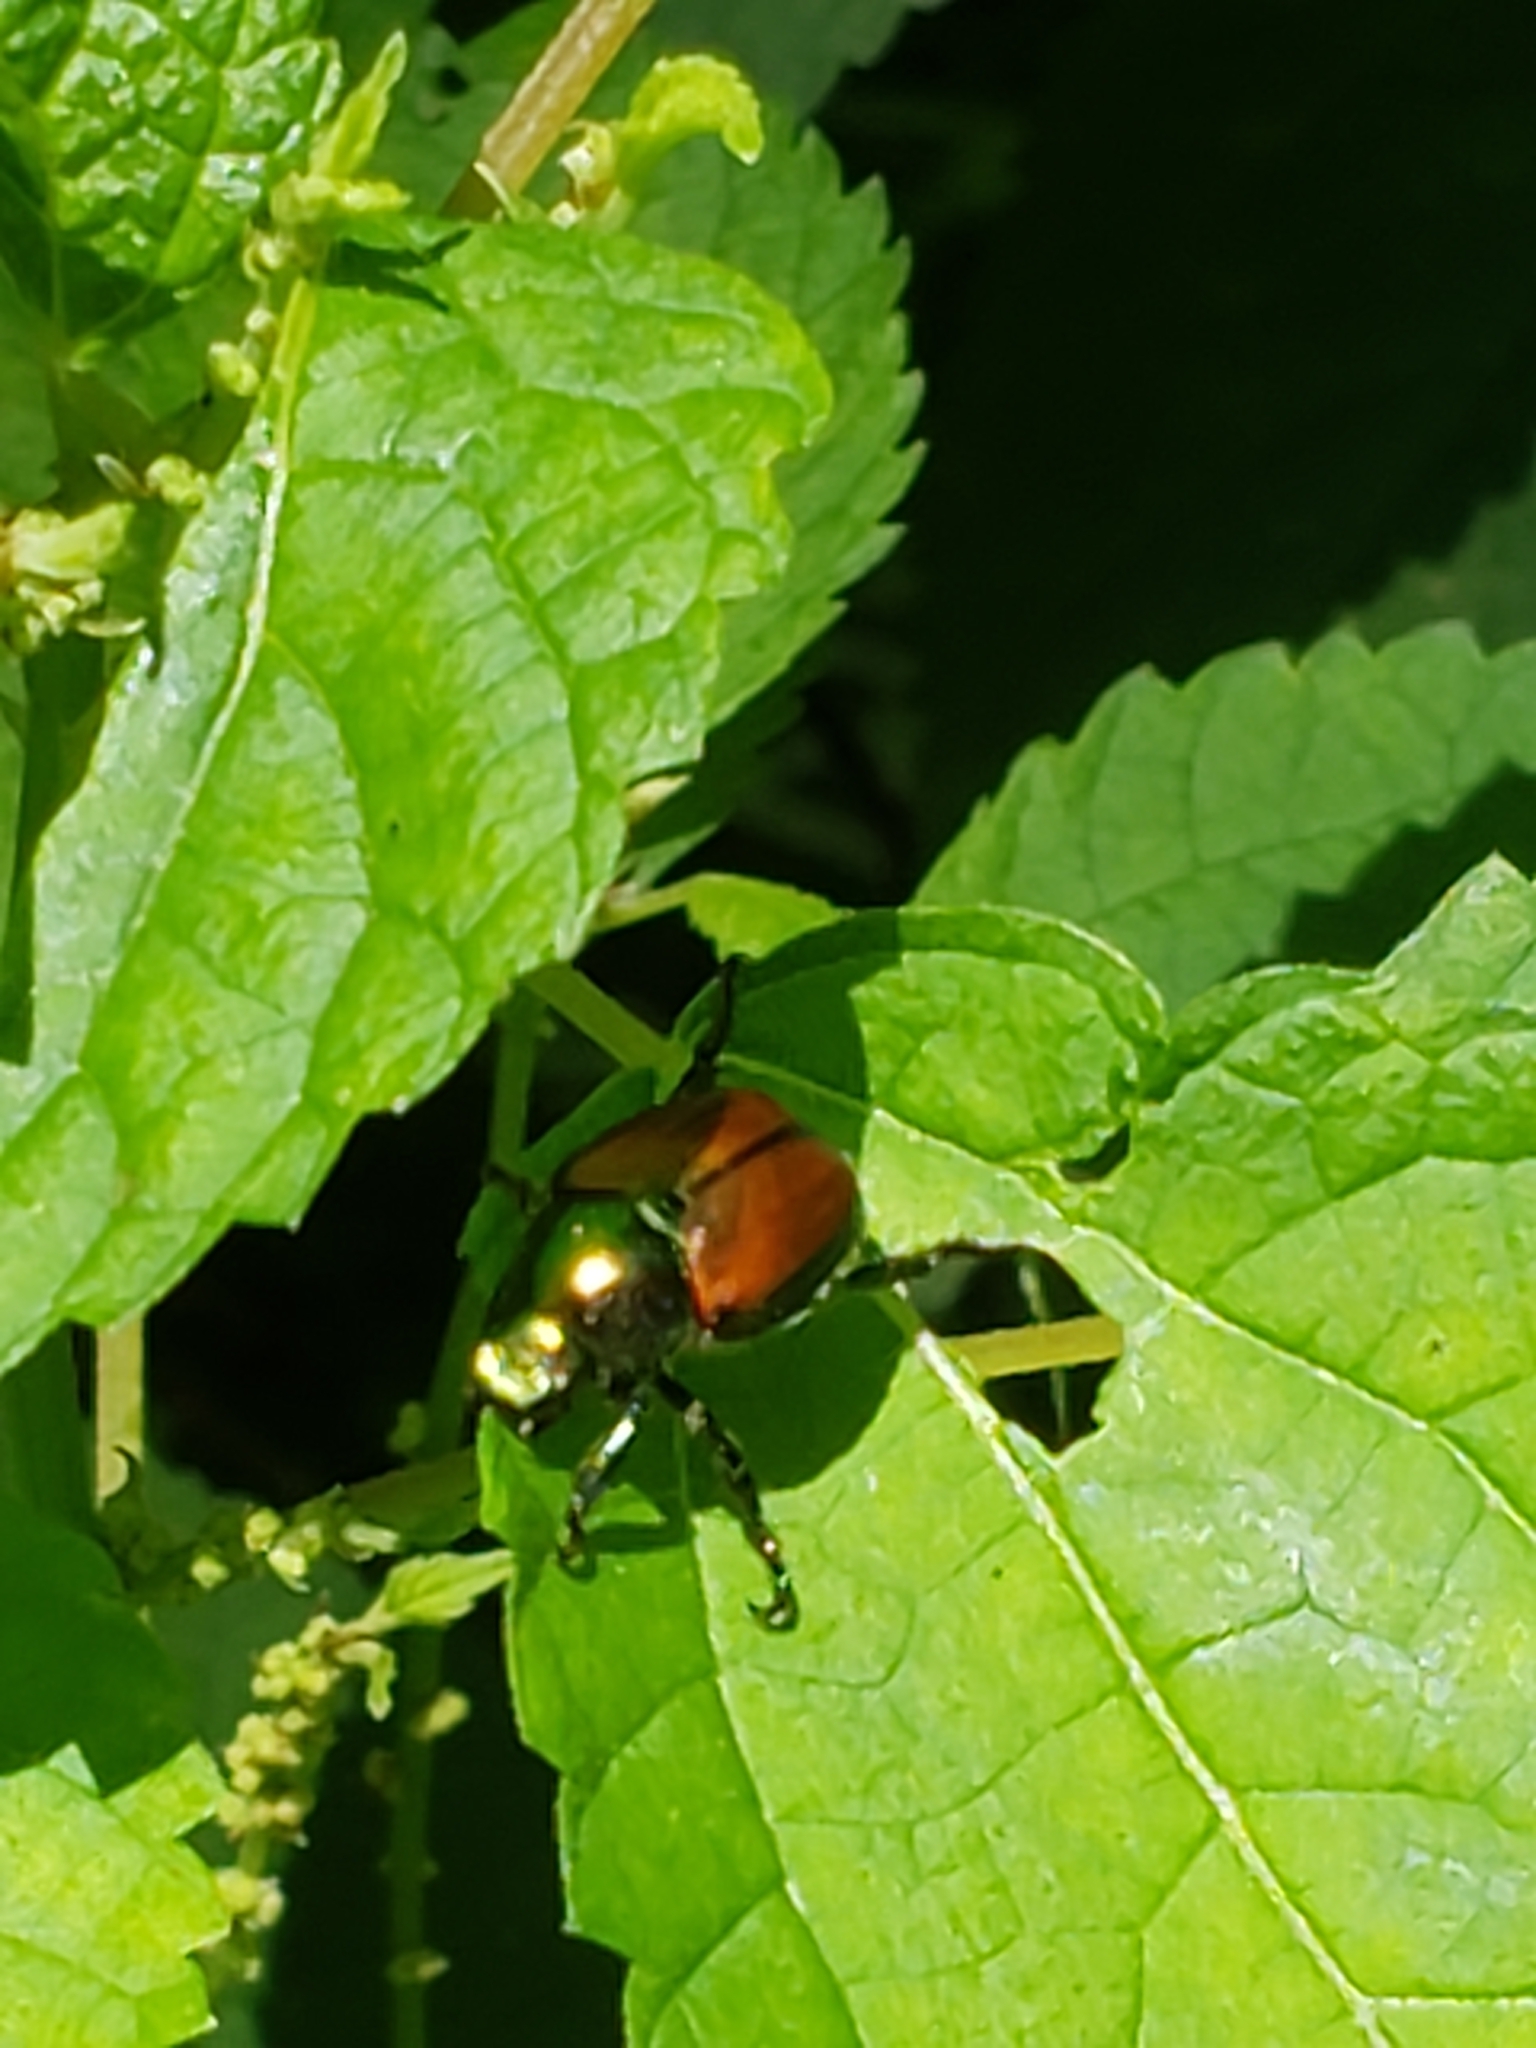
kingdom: Animalia
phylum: Arthropoda
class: Insecta
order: Coleoptera
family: Scarabaeidae
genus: Popillia
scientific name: Popillia japonica
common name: Japanese beetle
